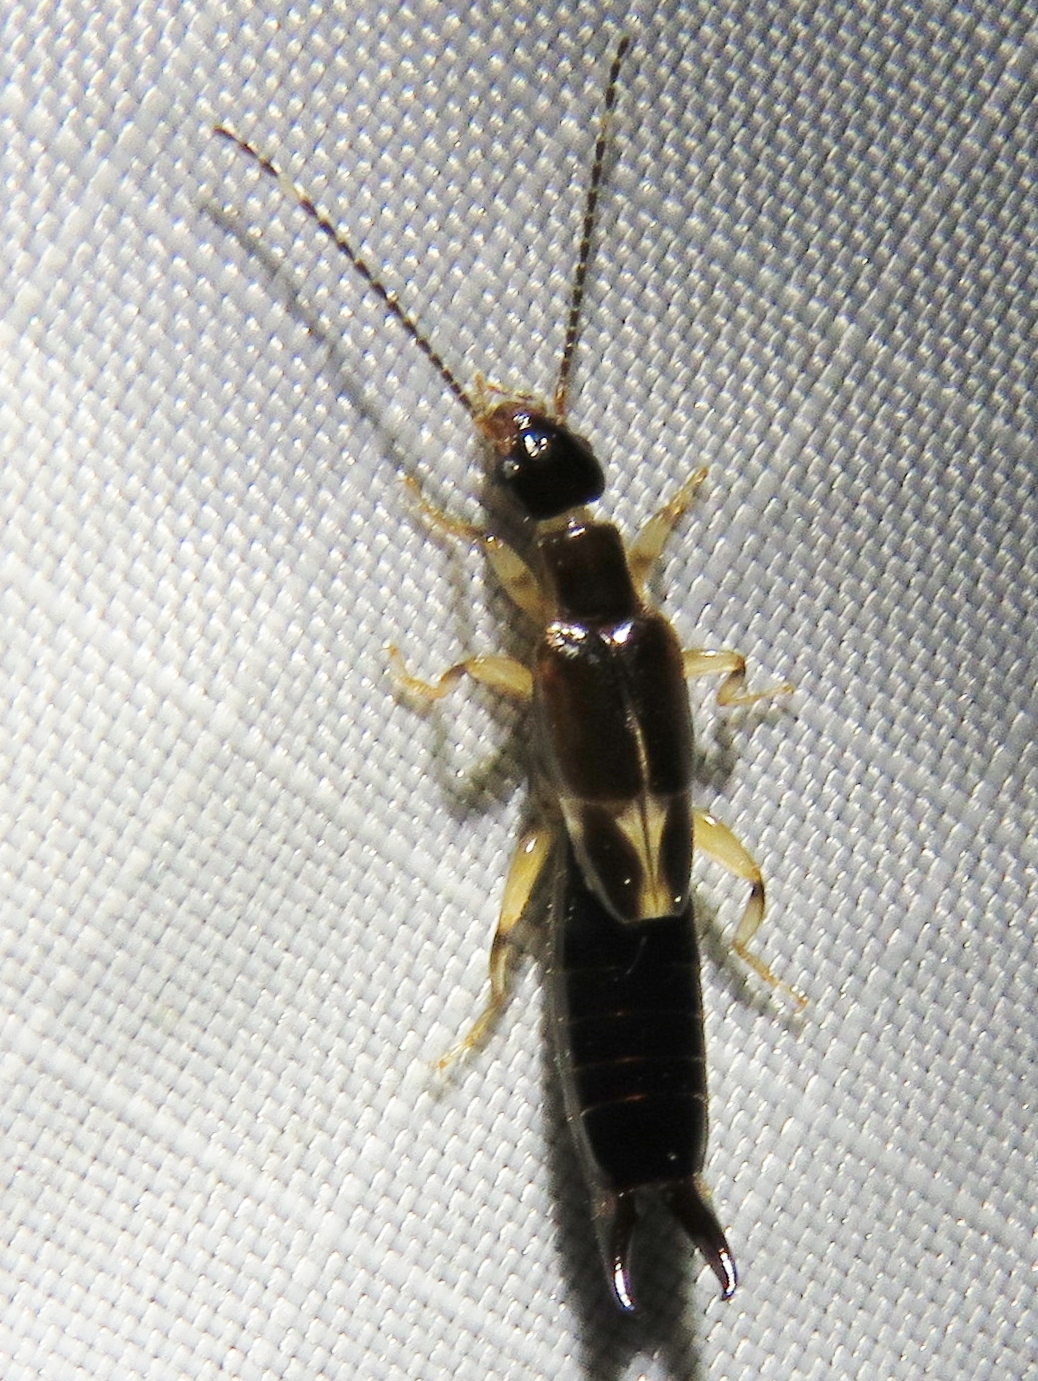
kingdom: Animalia
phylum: Arthropoda
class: Insecta
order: Dermaptera
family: Anisolabididae
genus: Euborellia
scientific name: Euborellia cincticollis
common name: African earwig
